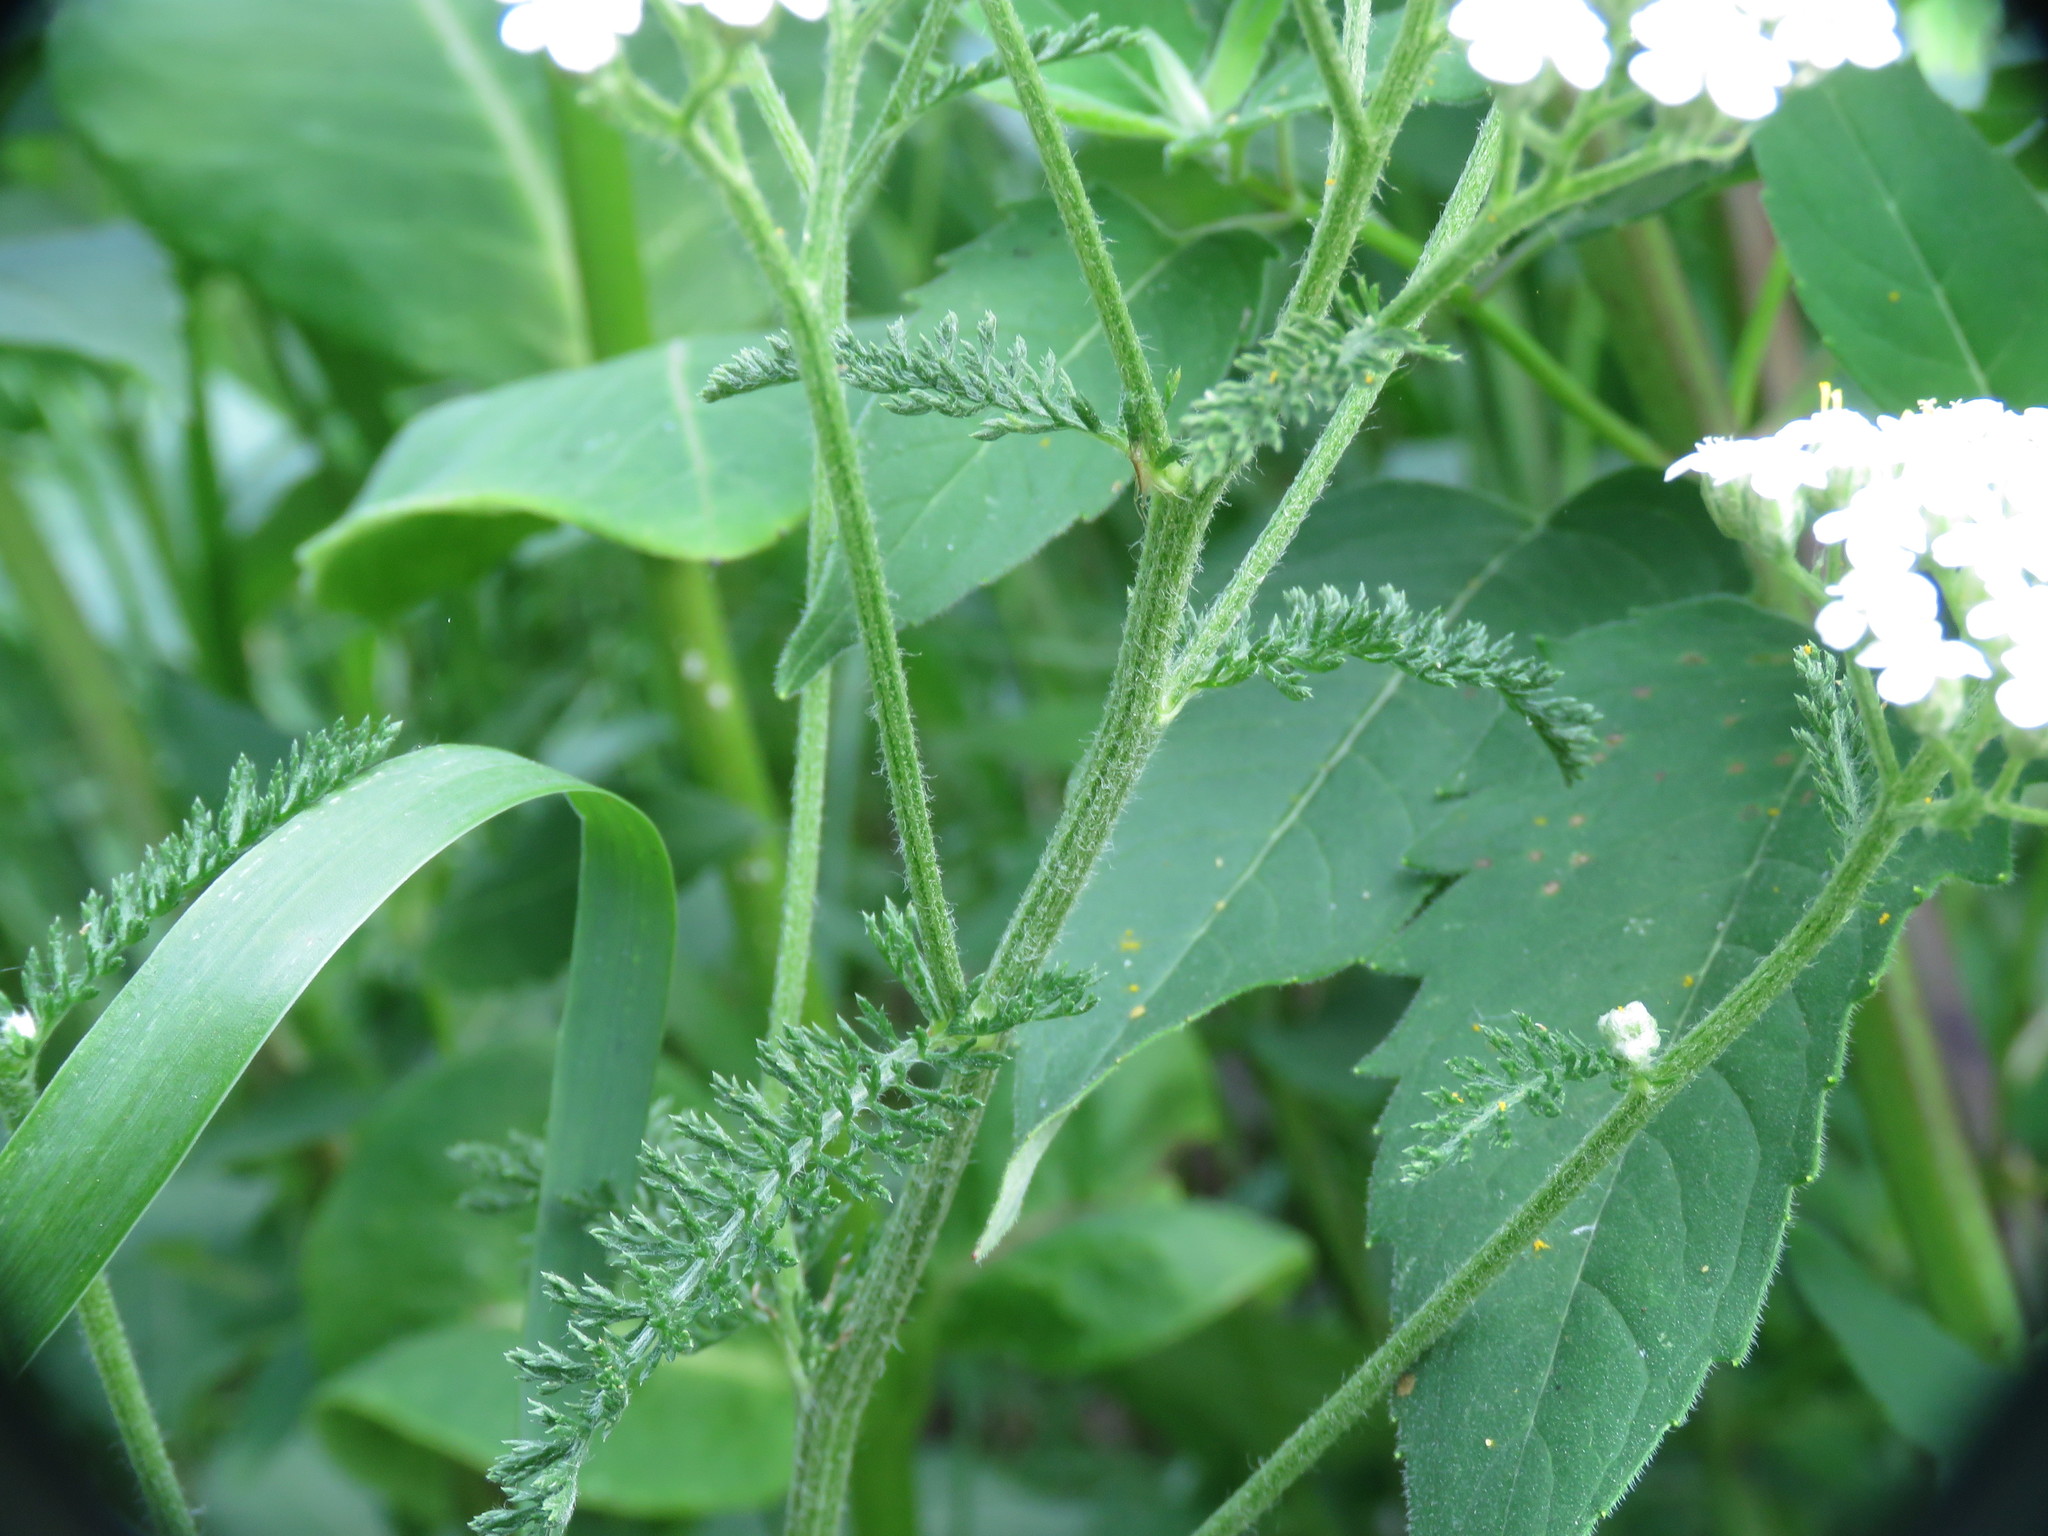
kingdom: Plantae
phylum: Tracheophyta
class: Magnoliopsida
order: Asterales
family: Asteraceae
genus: Achillea
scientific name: Achillea millefolium
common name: Yarrow
